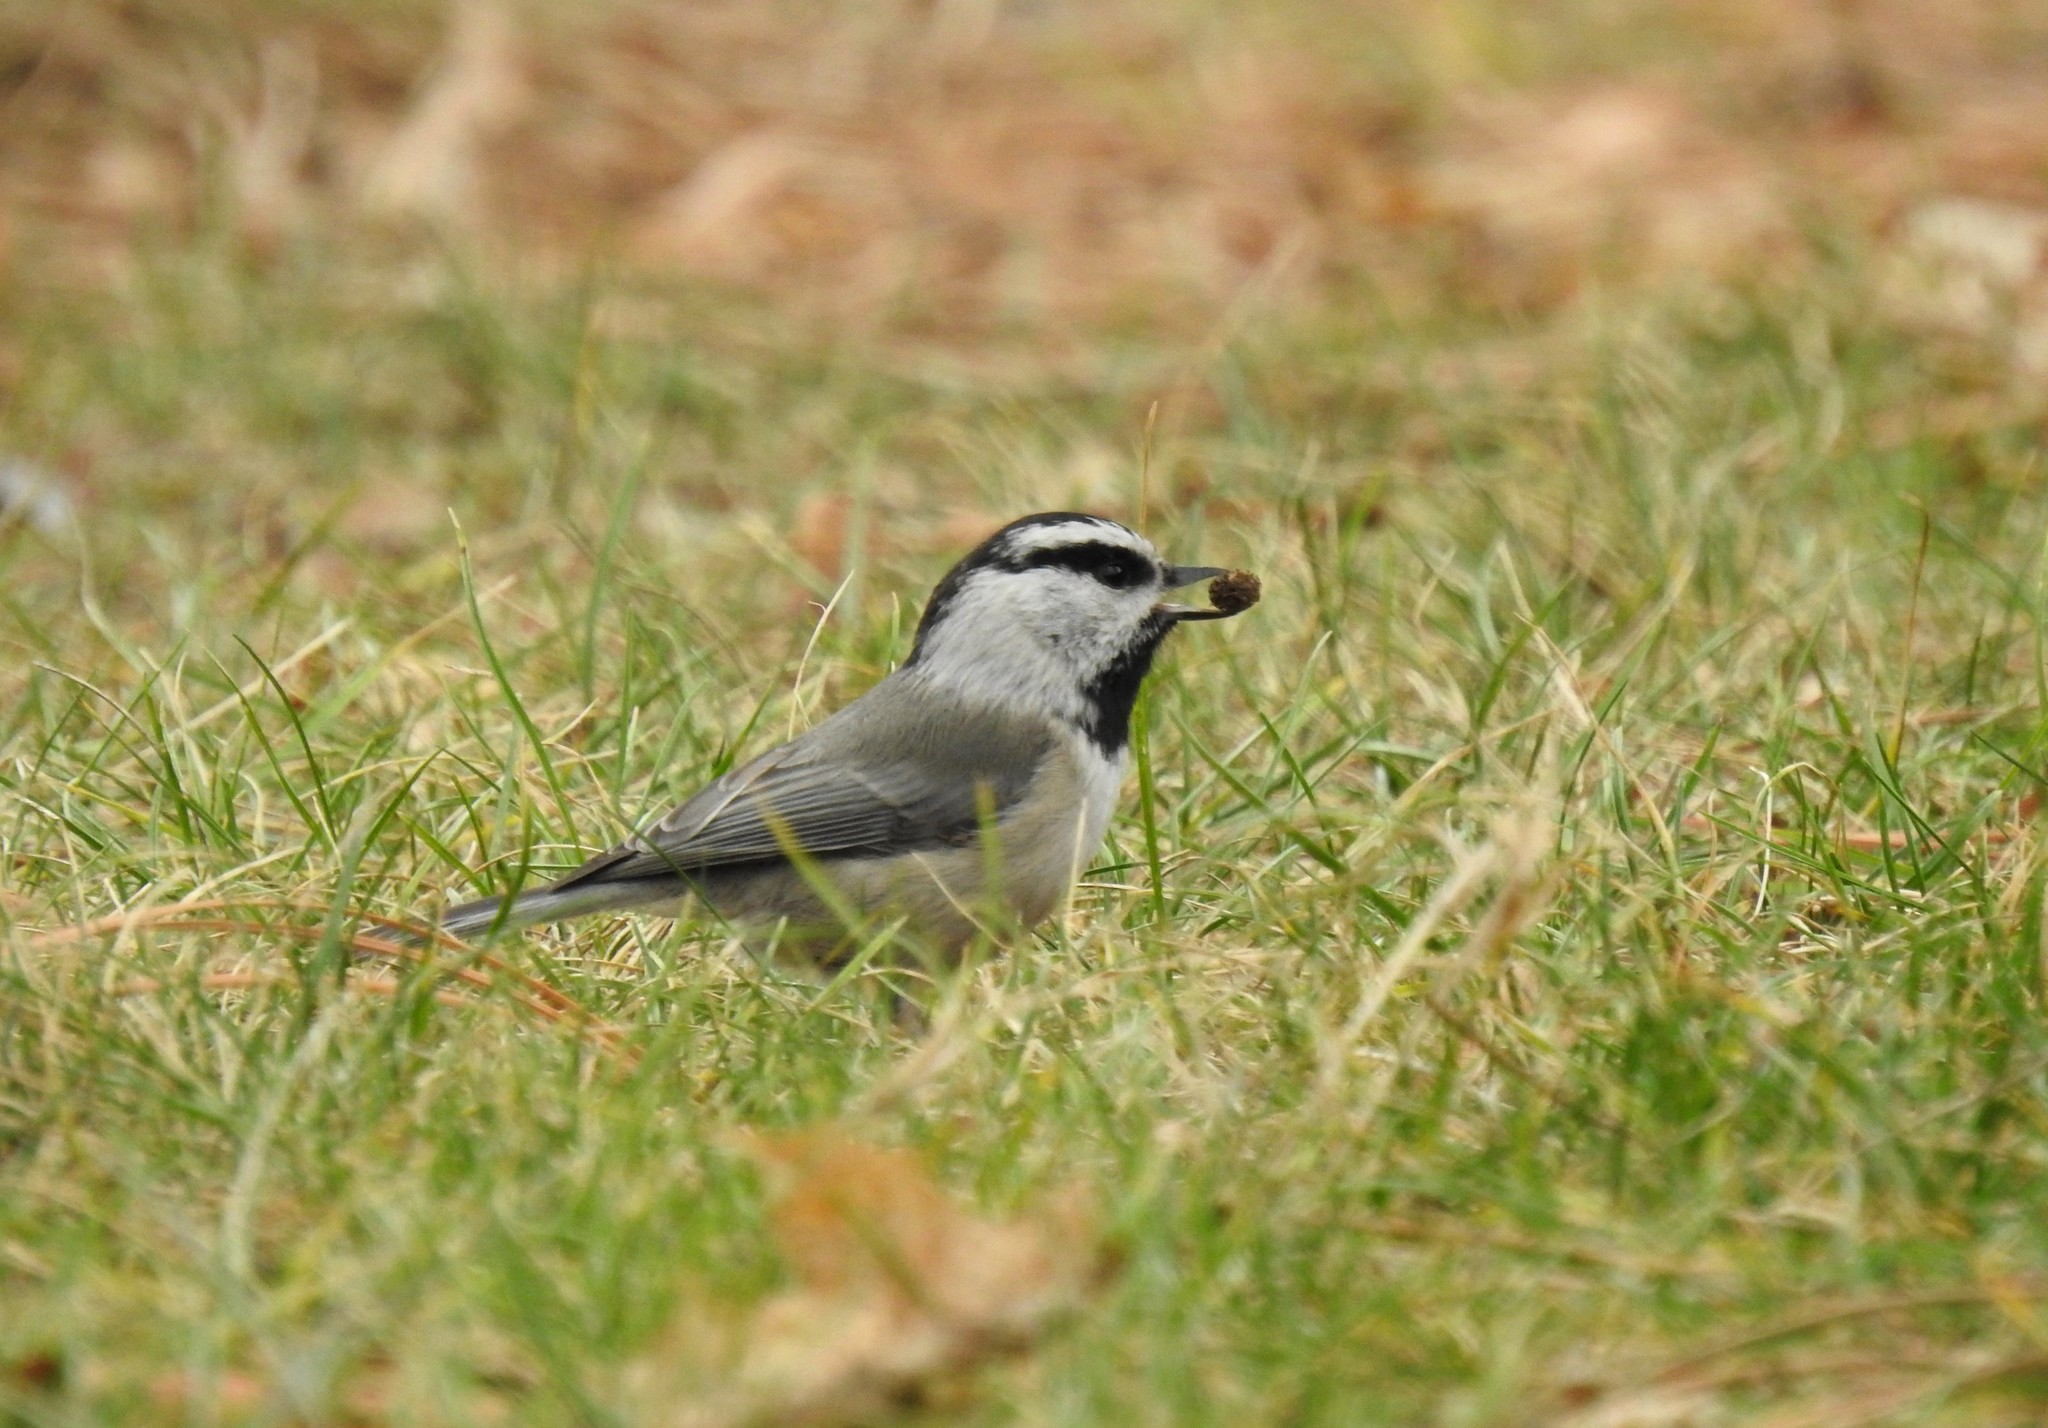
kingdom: Animalia
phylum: Chordata
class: Aves
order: Passeriformes
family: Paridae
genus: Poecile
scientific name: Poecile gambeli
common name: Mountain chickadee
